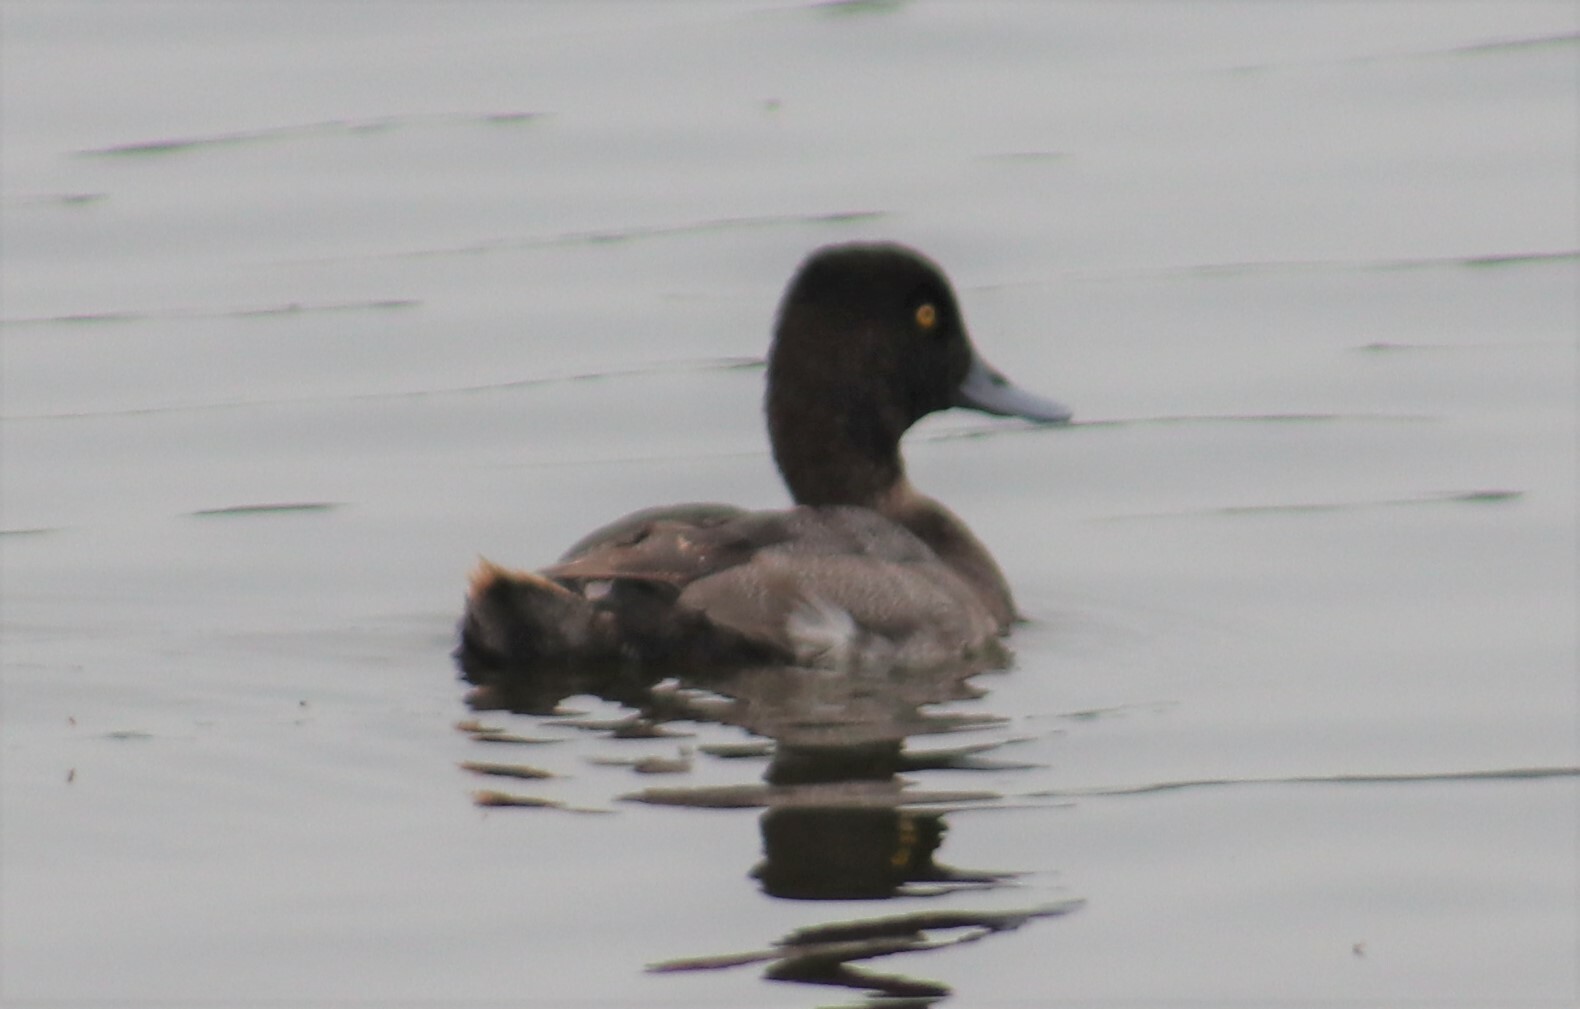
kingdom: Animalia
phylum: Chordata
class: Aves
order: Anseriformes
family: Anatidae
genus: Aythya
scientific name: Aythya affinis
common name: Lesser scaup
